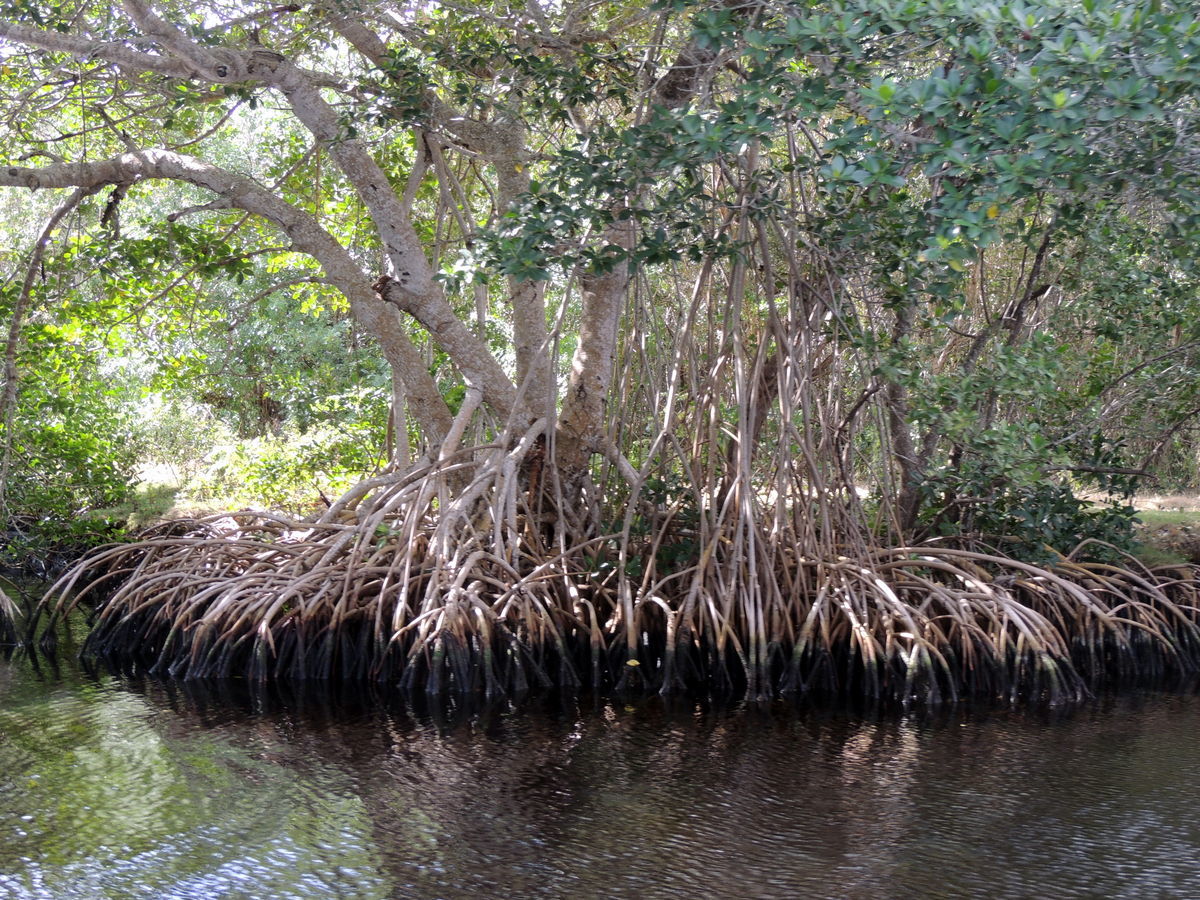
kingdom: Plantae
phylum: Tracheophyta
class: Magnoliopsida
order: Malpighiales
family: Rhizophoraceae
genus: Rhizophora
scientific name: Rhizophora mangle
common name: Red mangrove
